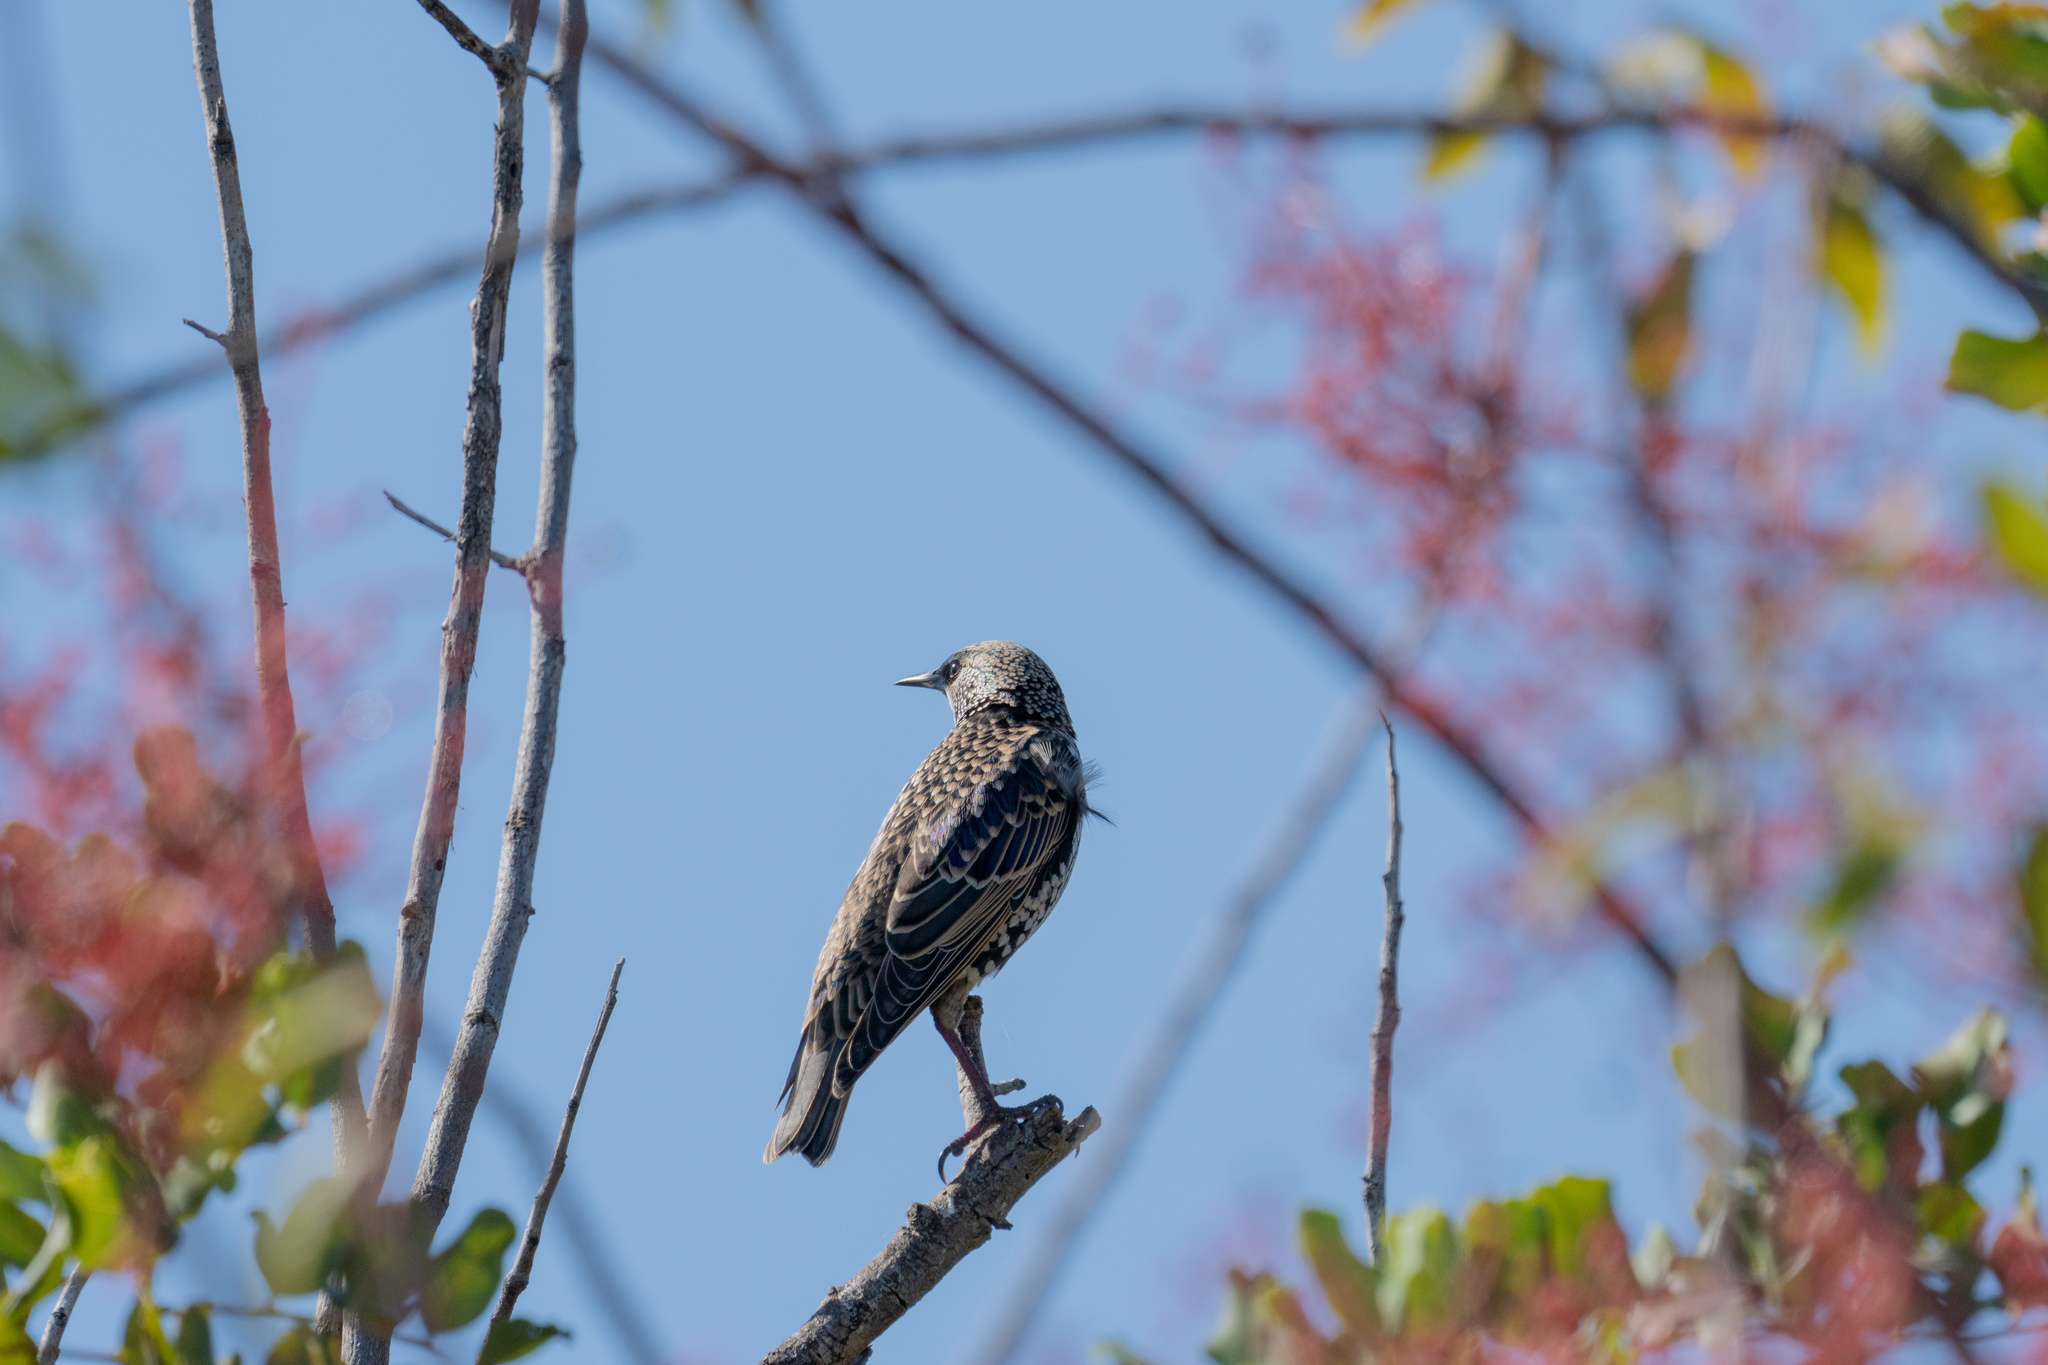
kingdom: Animalia
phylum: Chordata
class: Aves
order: Passeriformes
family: Sturnidae
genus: Sturnus
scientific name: Sturnus vulgaris
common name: Common starling
